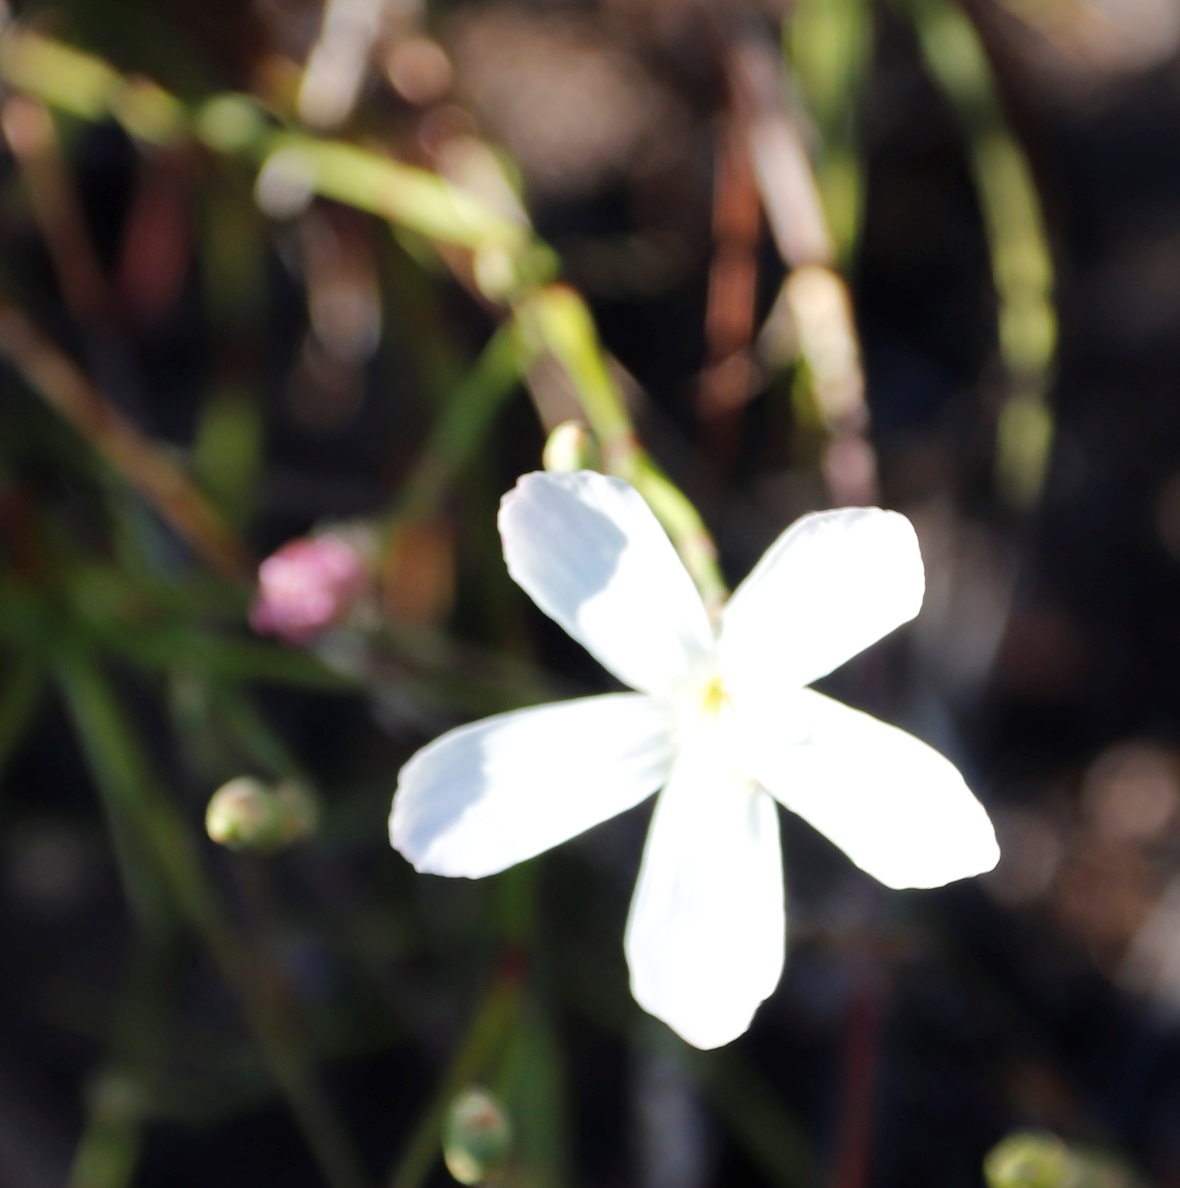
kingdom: Plantae
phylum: Tracheophyta
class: Magnoliopsida
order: Caryophyllales
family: Caryophyllaceae
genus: Dianthus
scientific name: Dianthus albens
